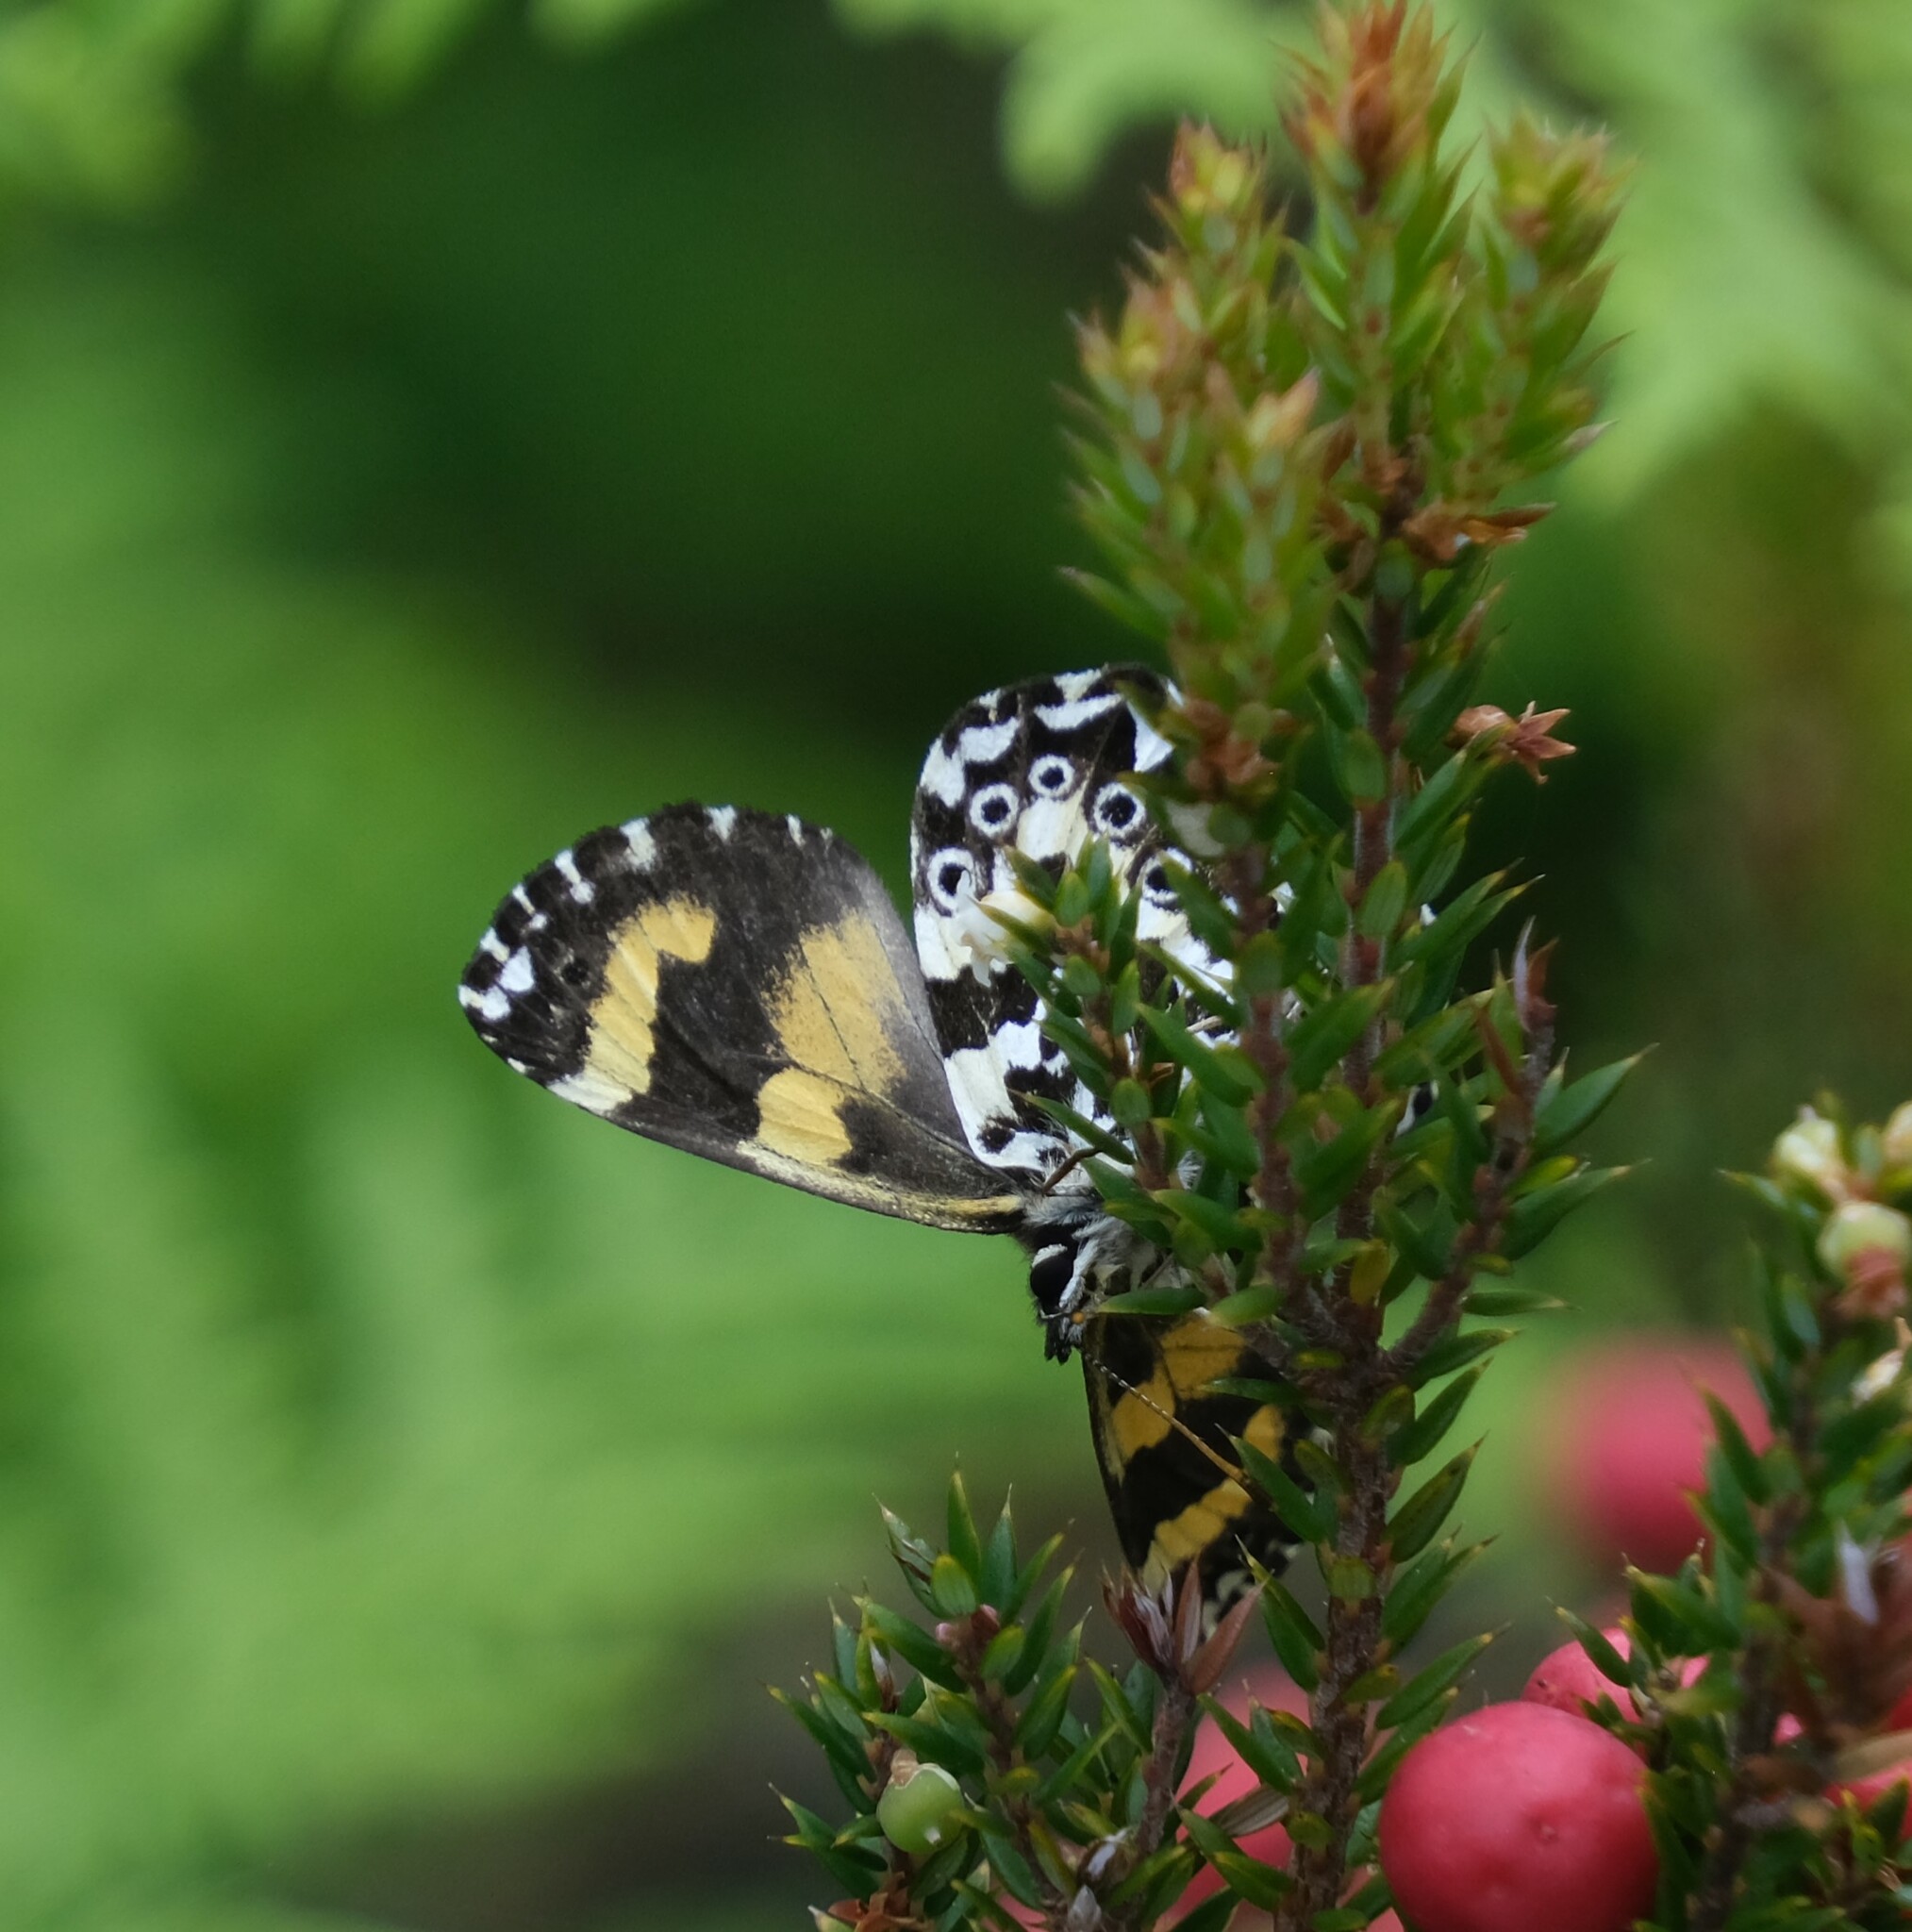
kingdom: Animalia
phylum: Arthropoda
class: Insecta
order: Lepidoptera
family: Nymphalidae
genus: Nesoxenica
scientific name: Nesoxenica leprea
